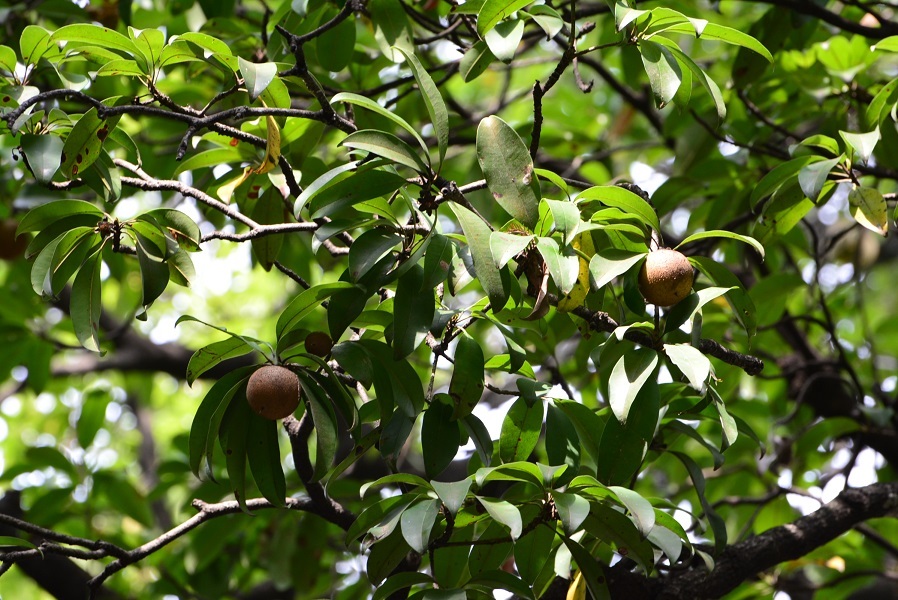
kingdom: Plantae
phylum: Tracheophyta
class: Magnoliopsida
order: Ericales
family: Sapotaceae
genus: Manilkara
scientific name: Manilkara zapota
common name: Sapodilla
